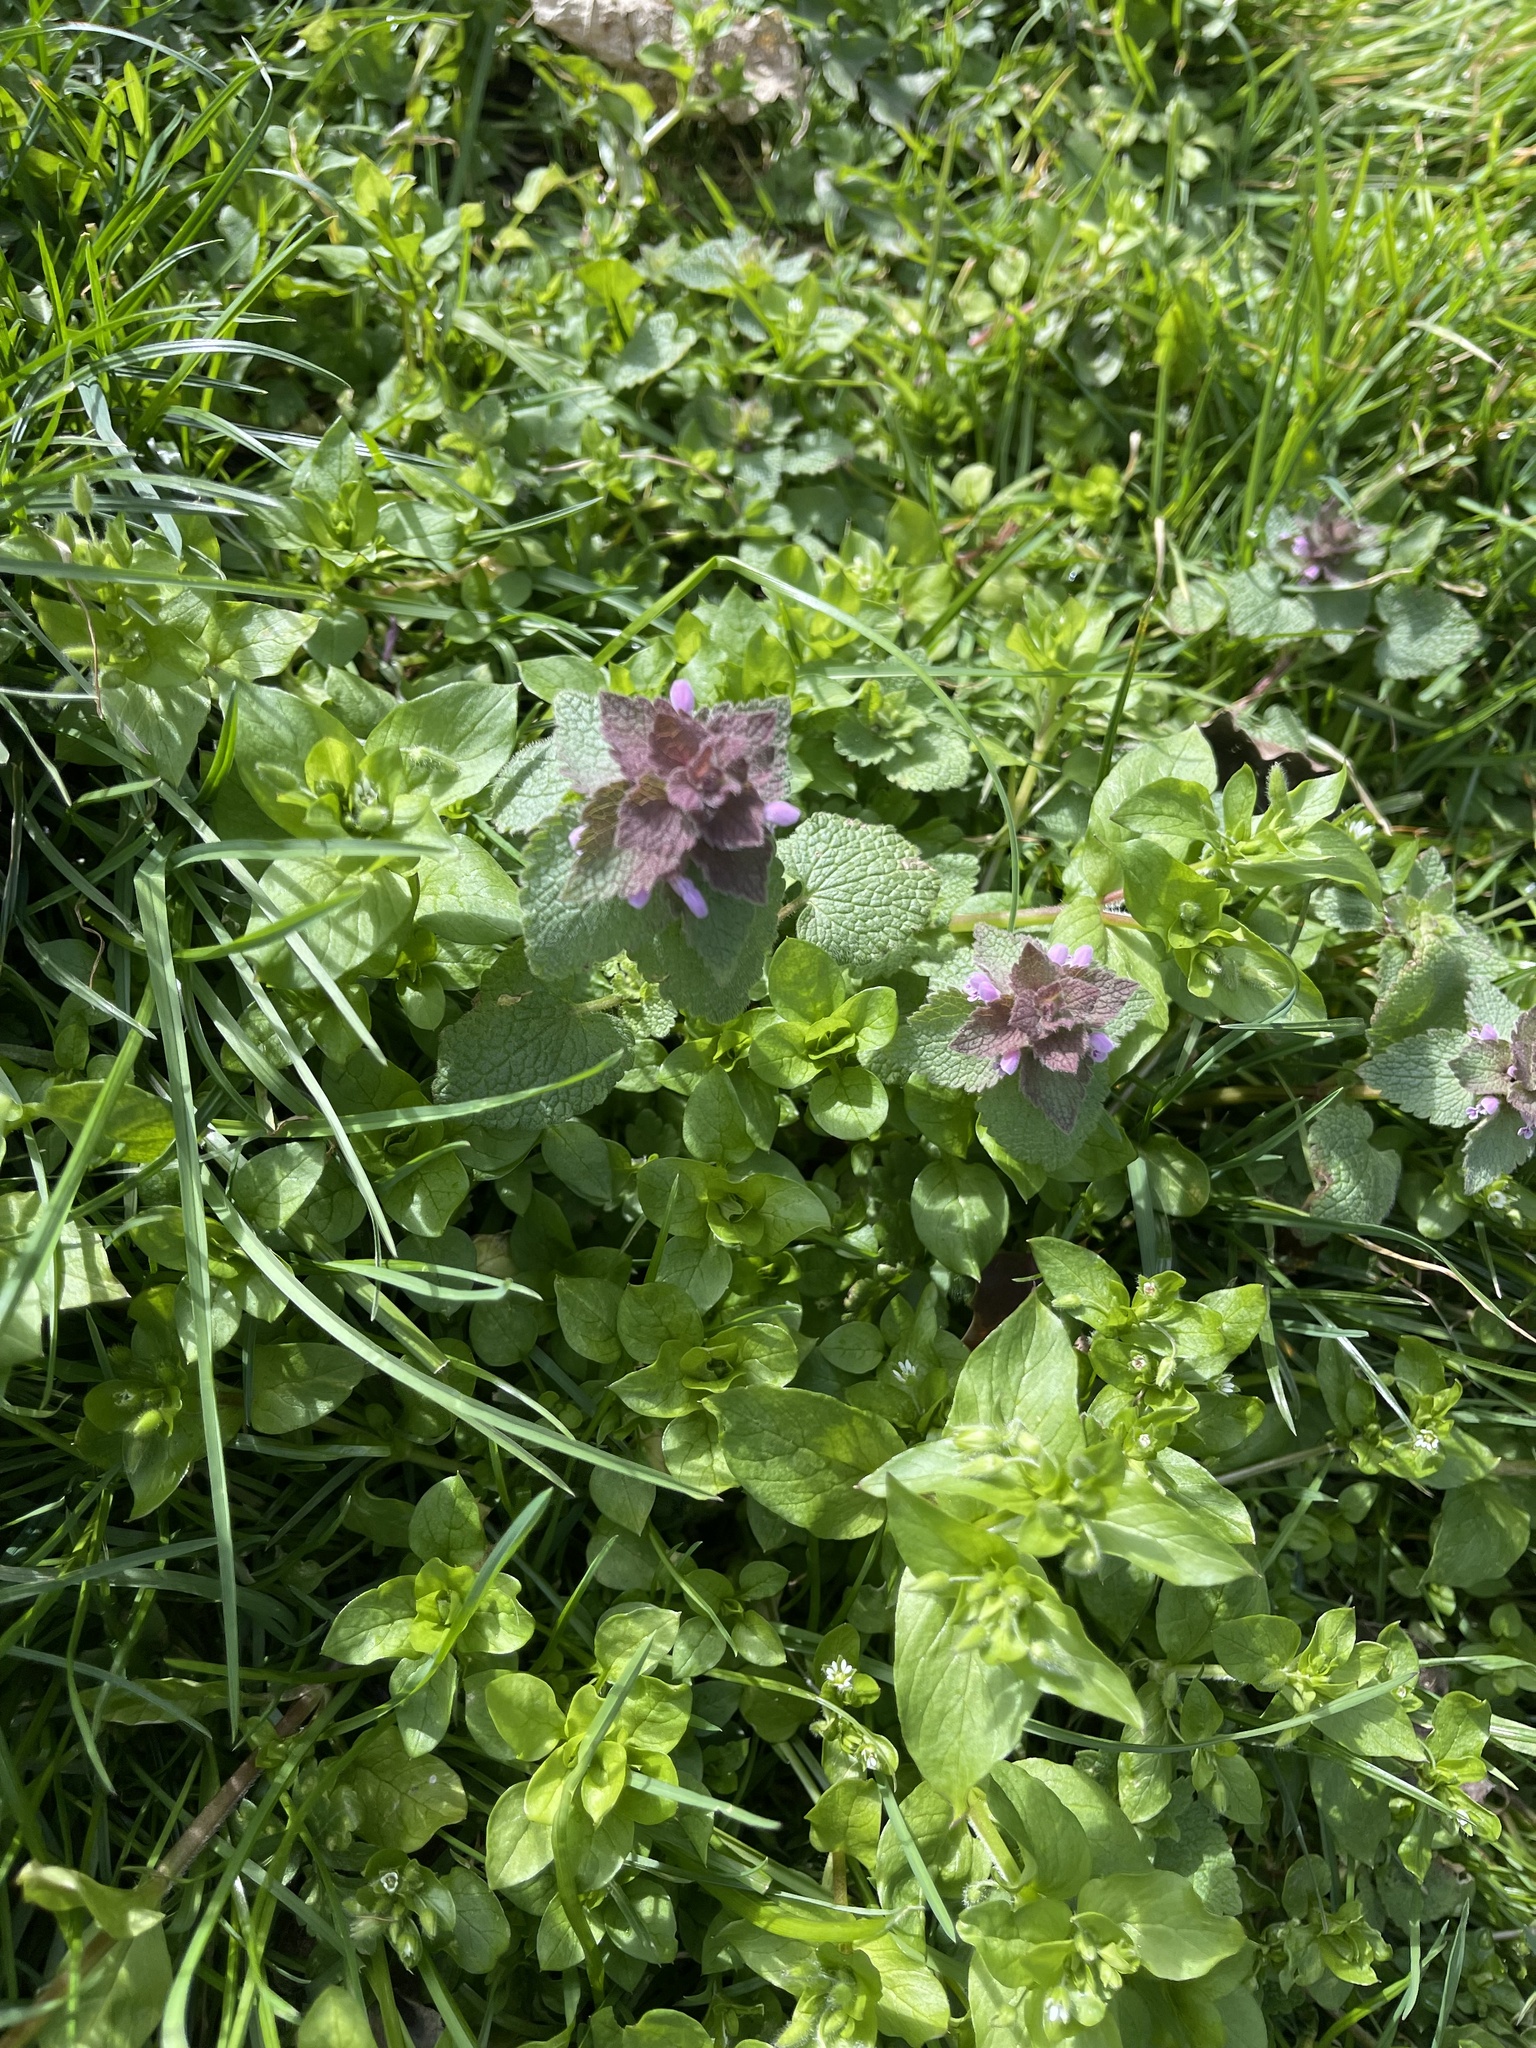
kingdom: Plantae
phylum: Tracheophyta
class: Magnoliopsida
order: Lamiales
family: Lamiaceae
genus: Lamium
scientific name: Lamium purpureum
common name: Red dead-nettle
